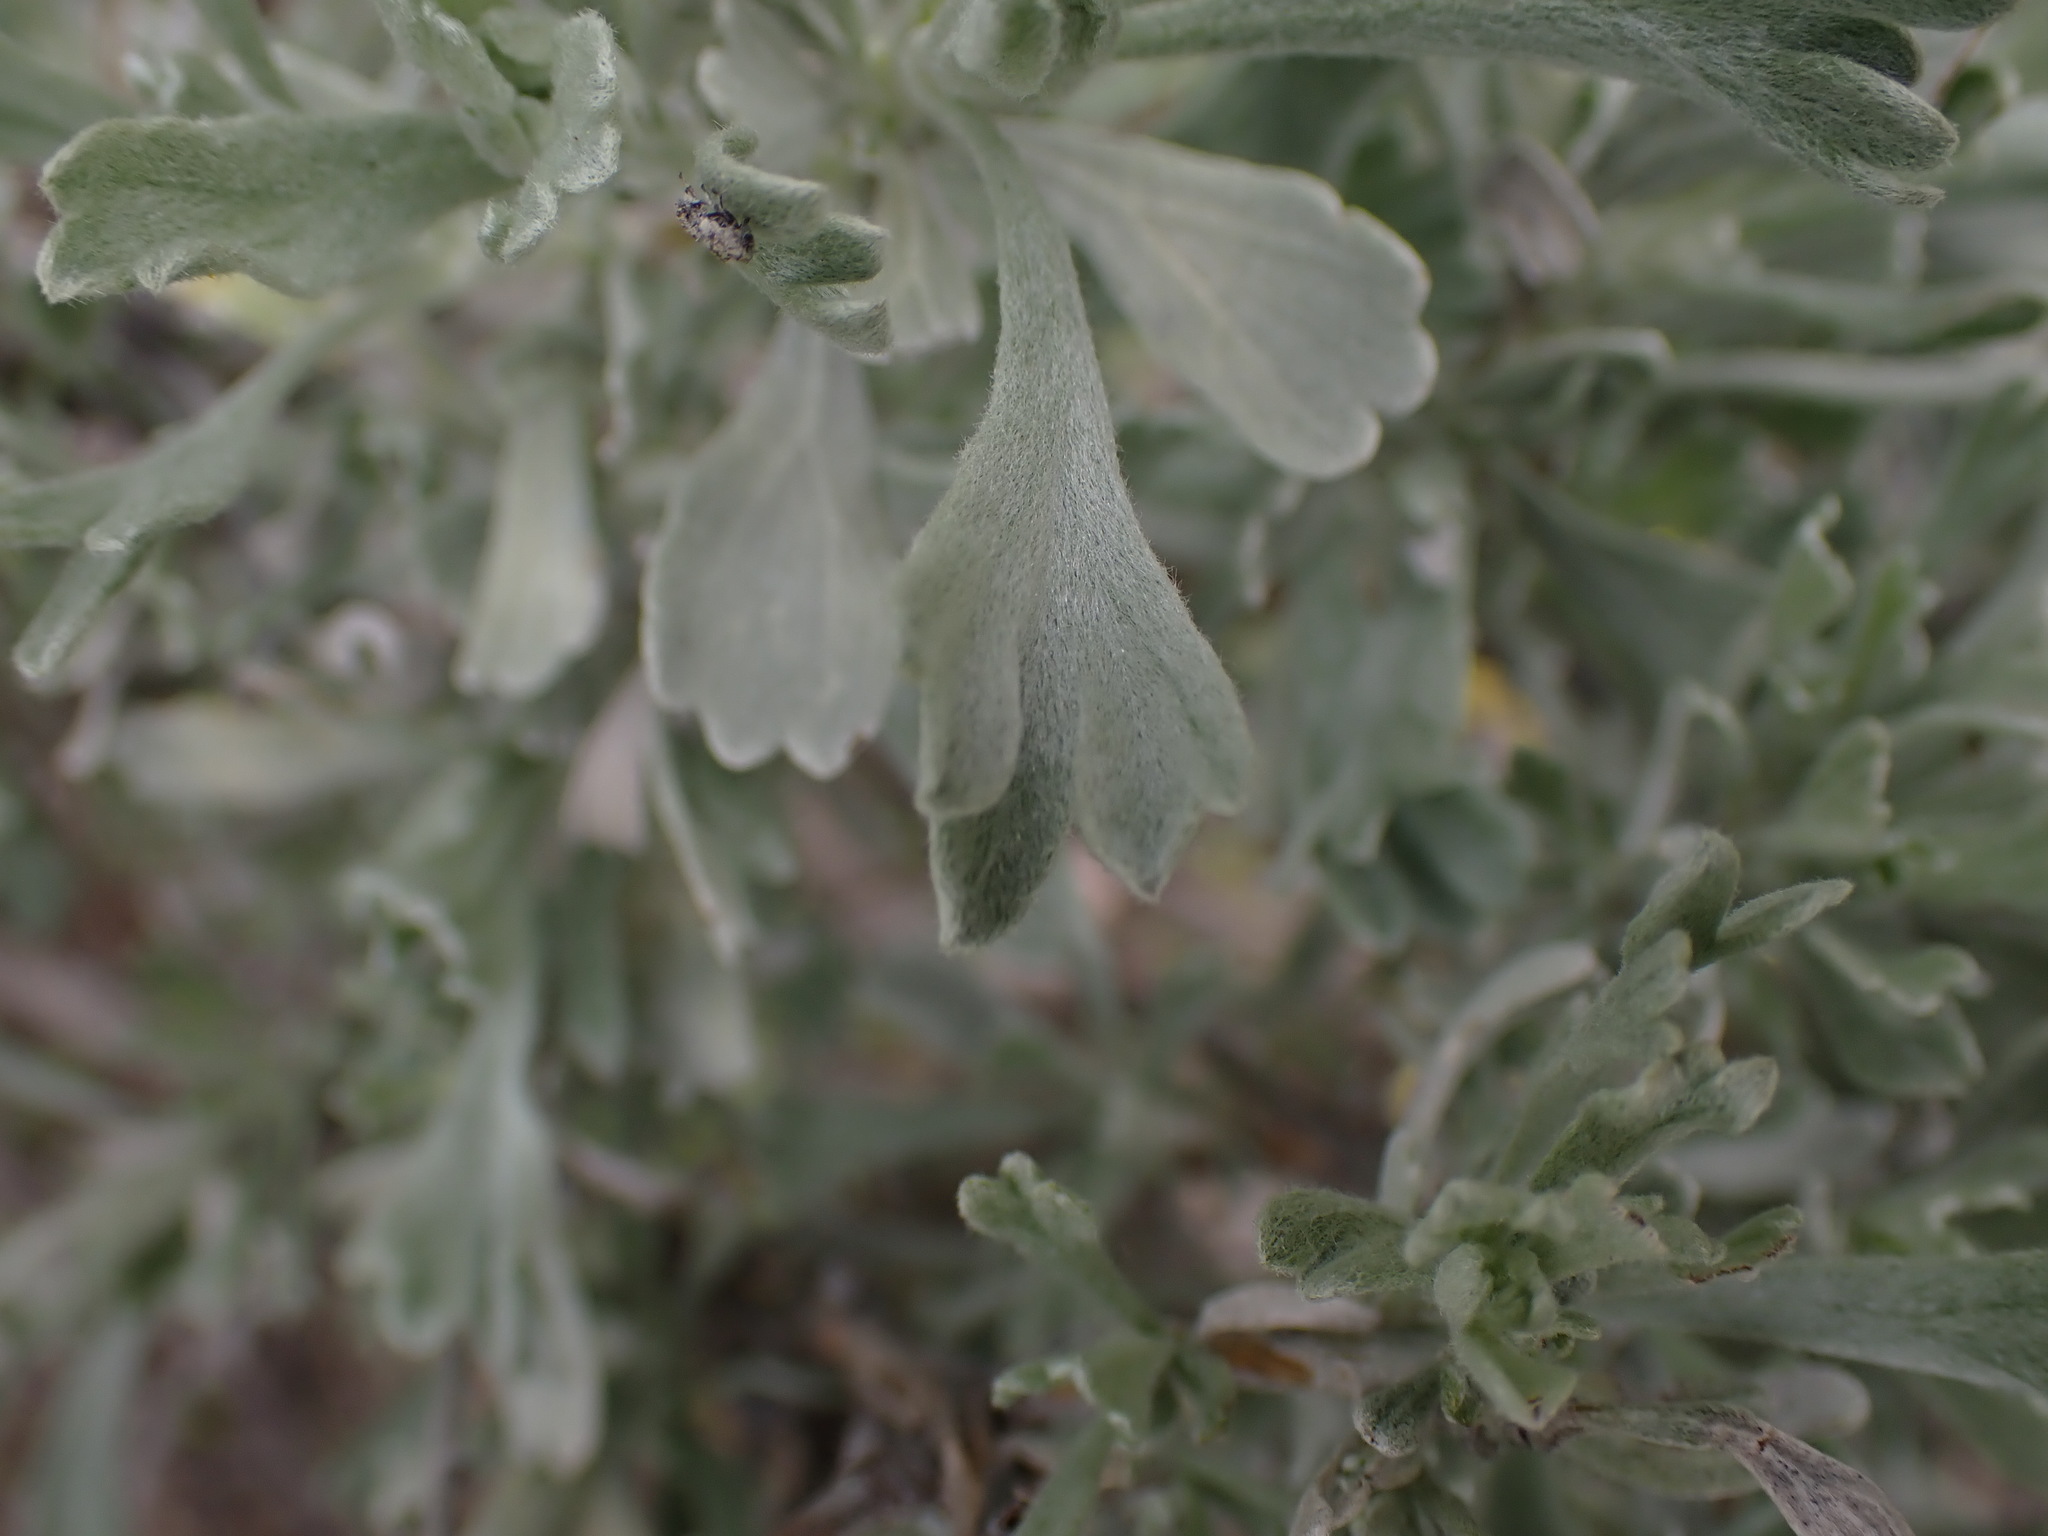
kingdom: Plantae
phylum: Tracheophyta
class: Magnoliopsida
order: Asterales
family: Asteraceae
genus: Artemisia
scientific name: Artemisia tridentata
